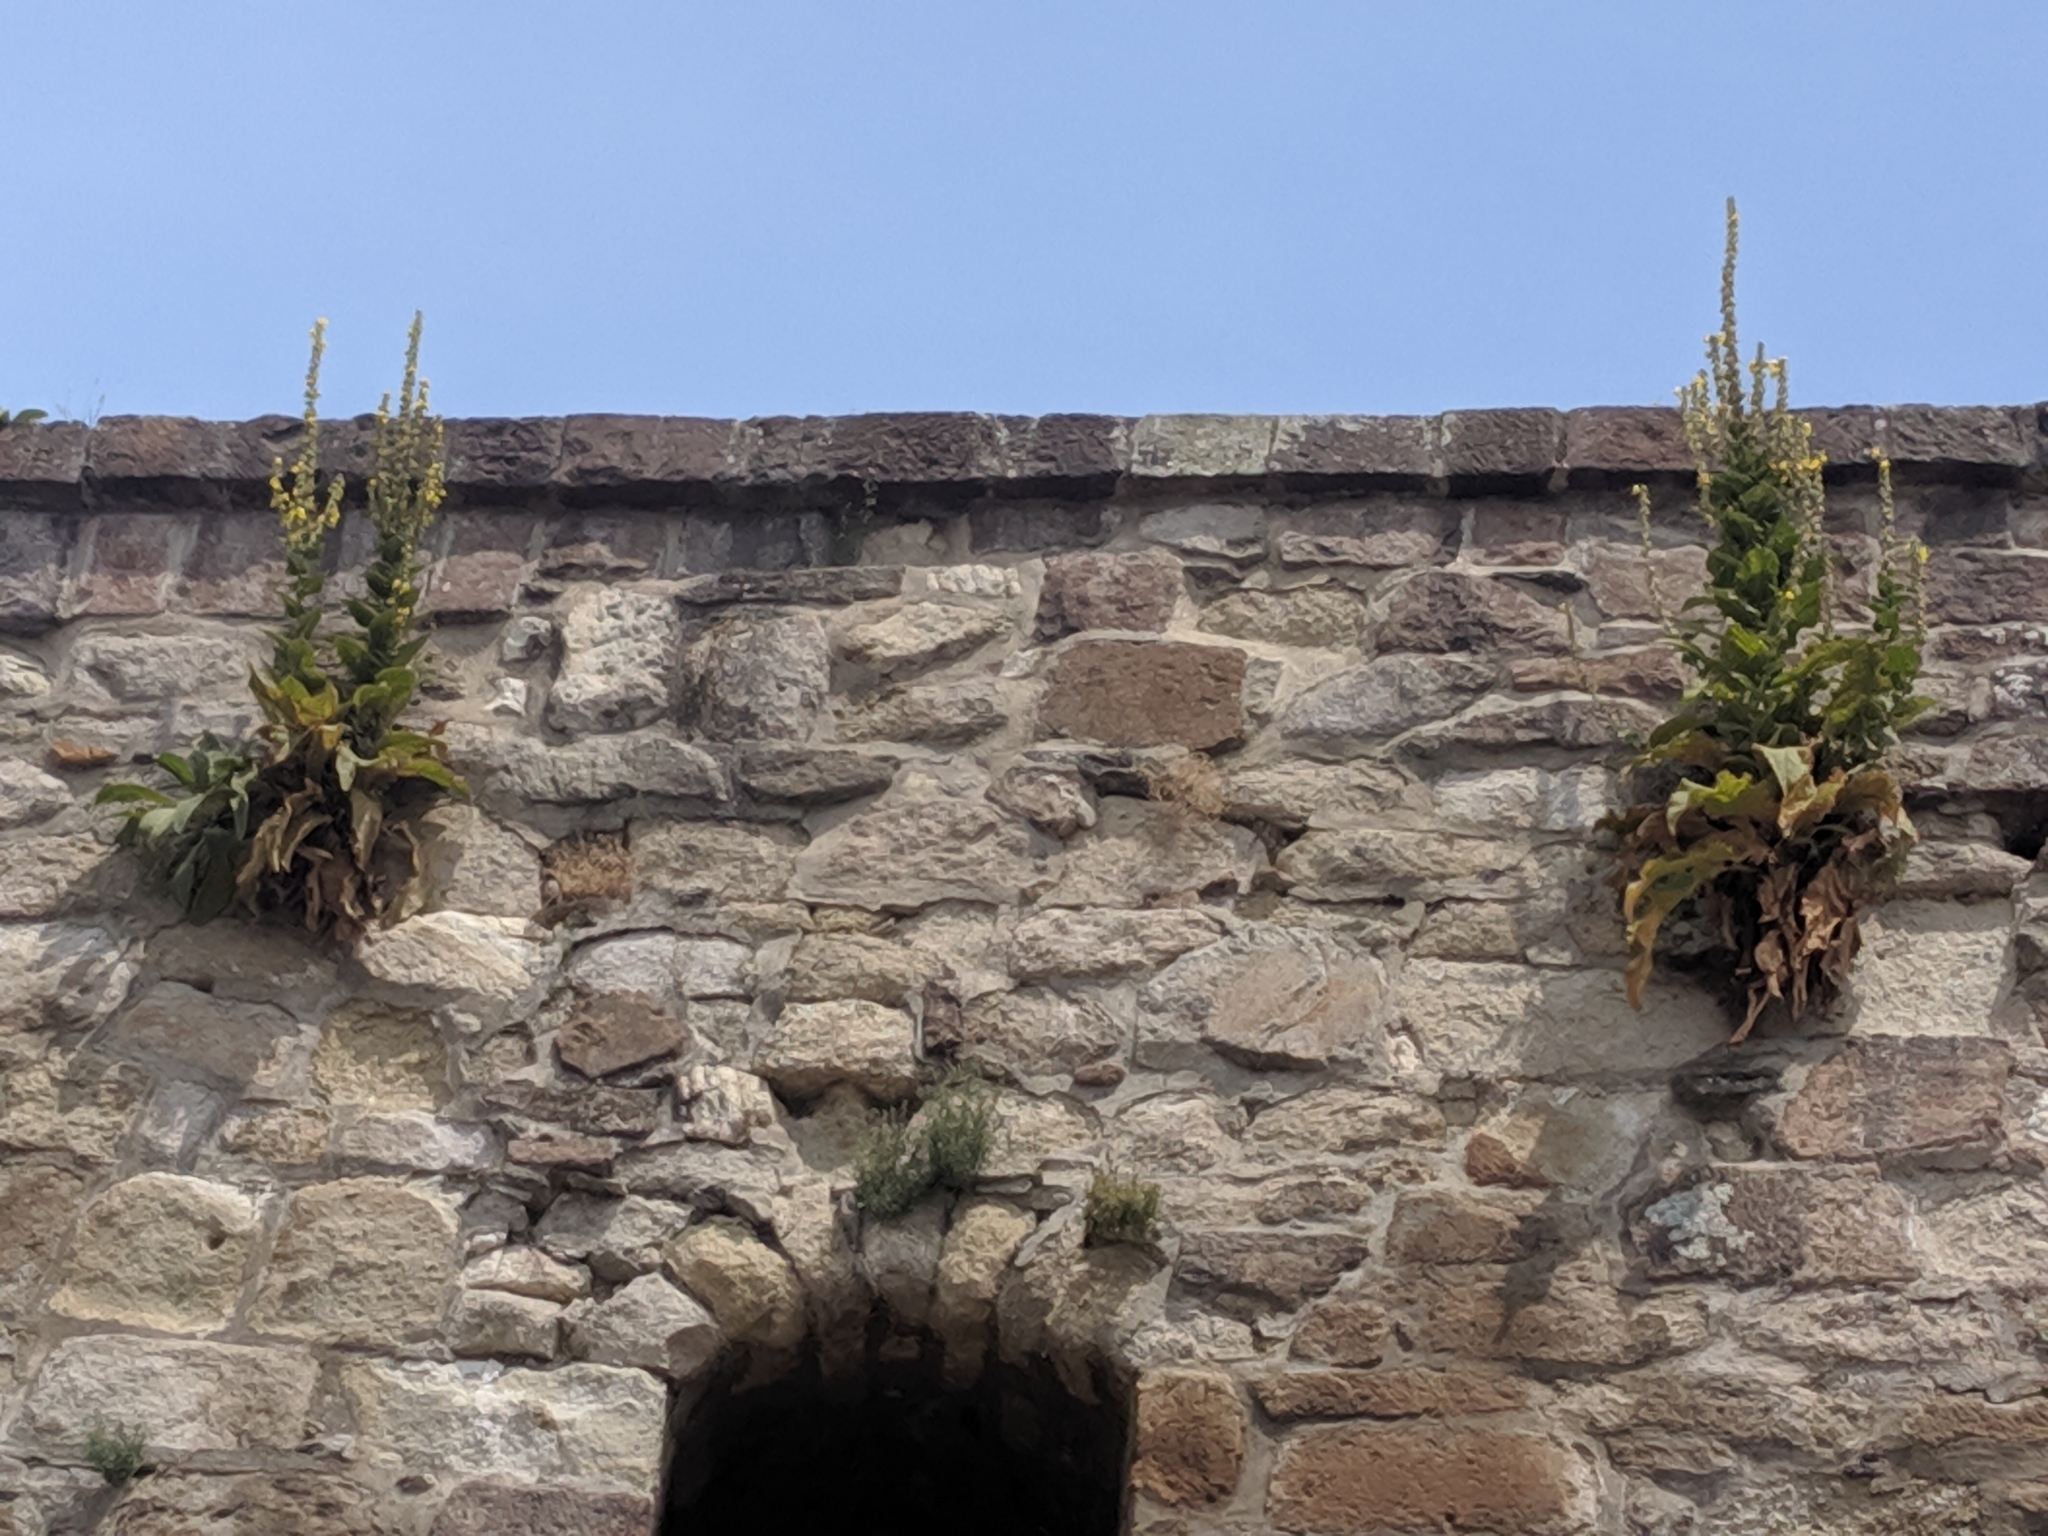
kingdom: Plantae
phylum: Tracheophyta
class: Magnoliopsida
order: Lamiales
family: Scrophulariaceae
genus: Verbascum
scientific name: Verbascum phlomoides
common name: Orange mullein
